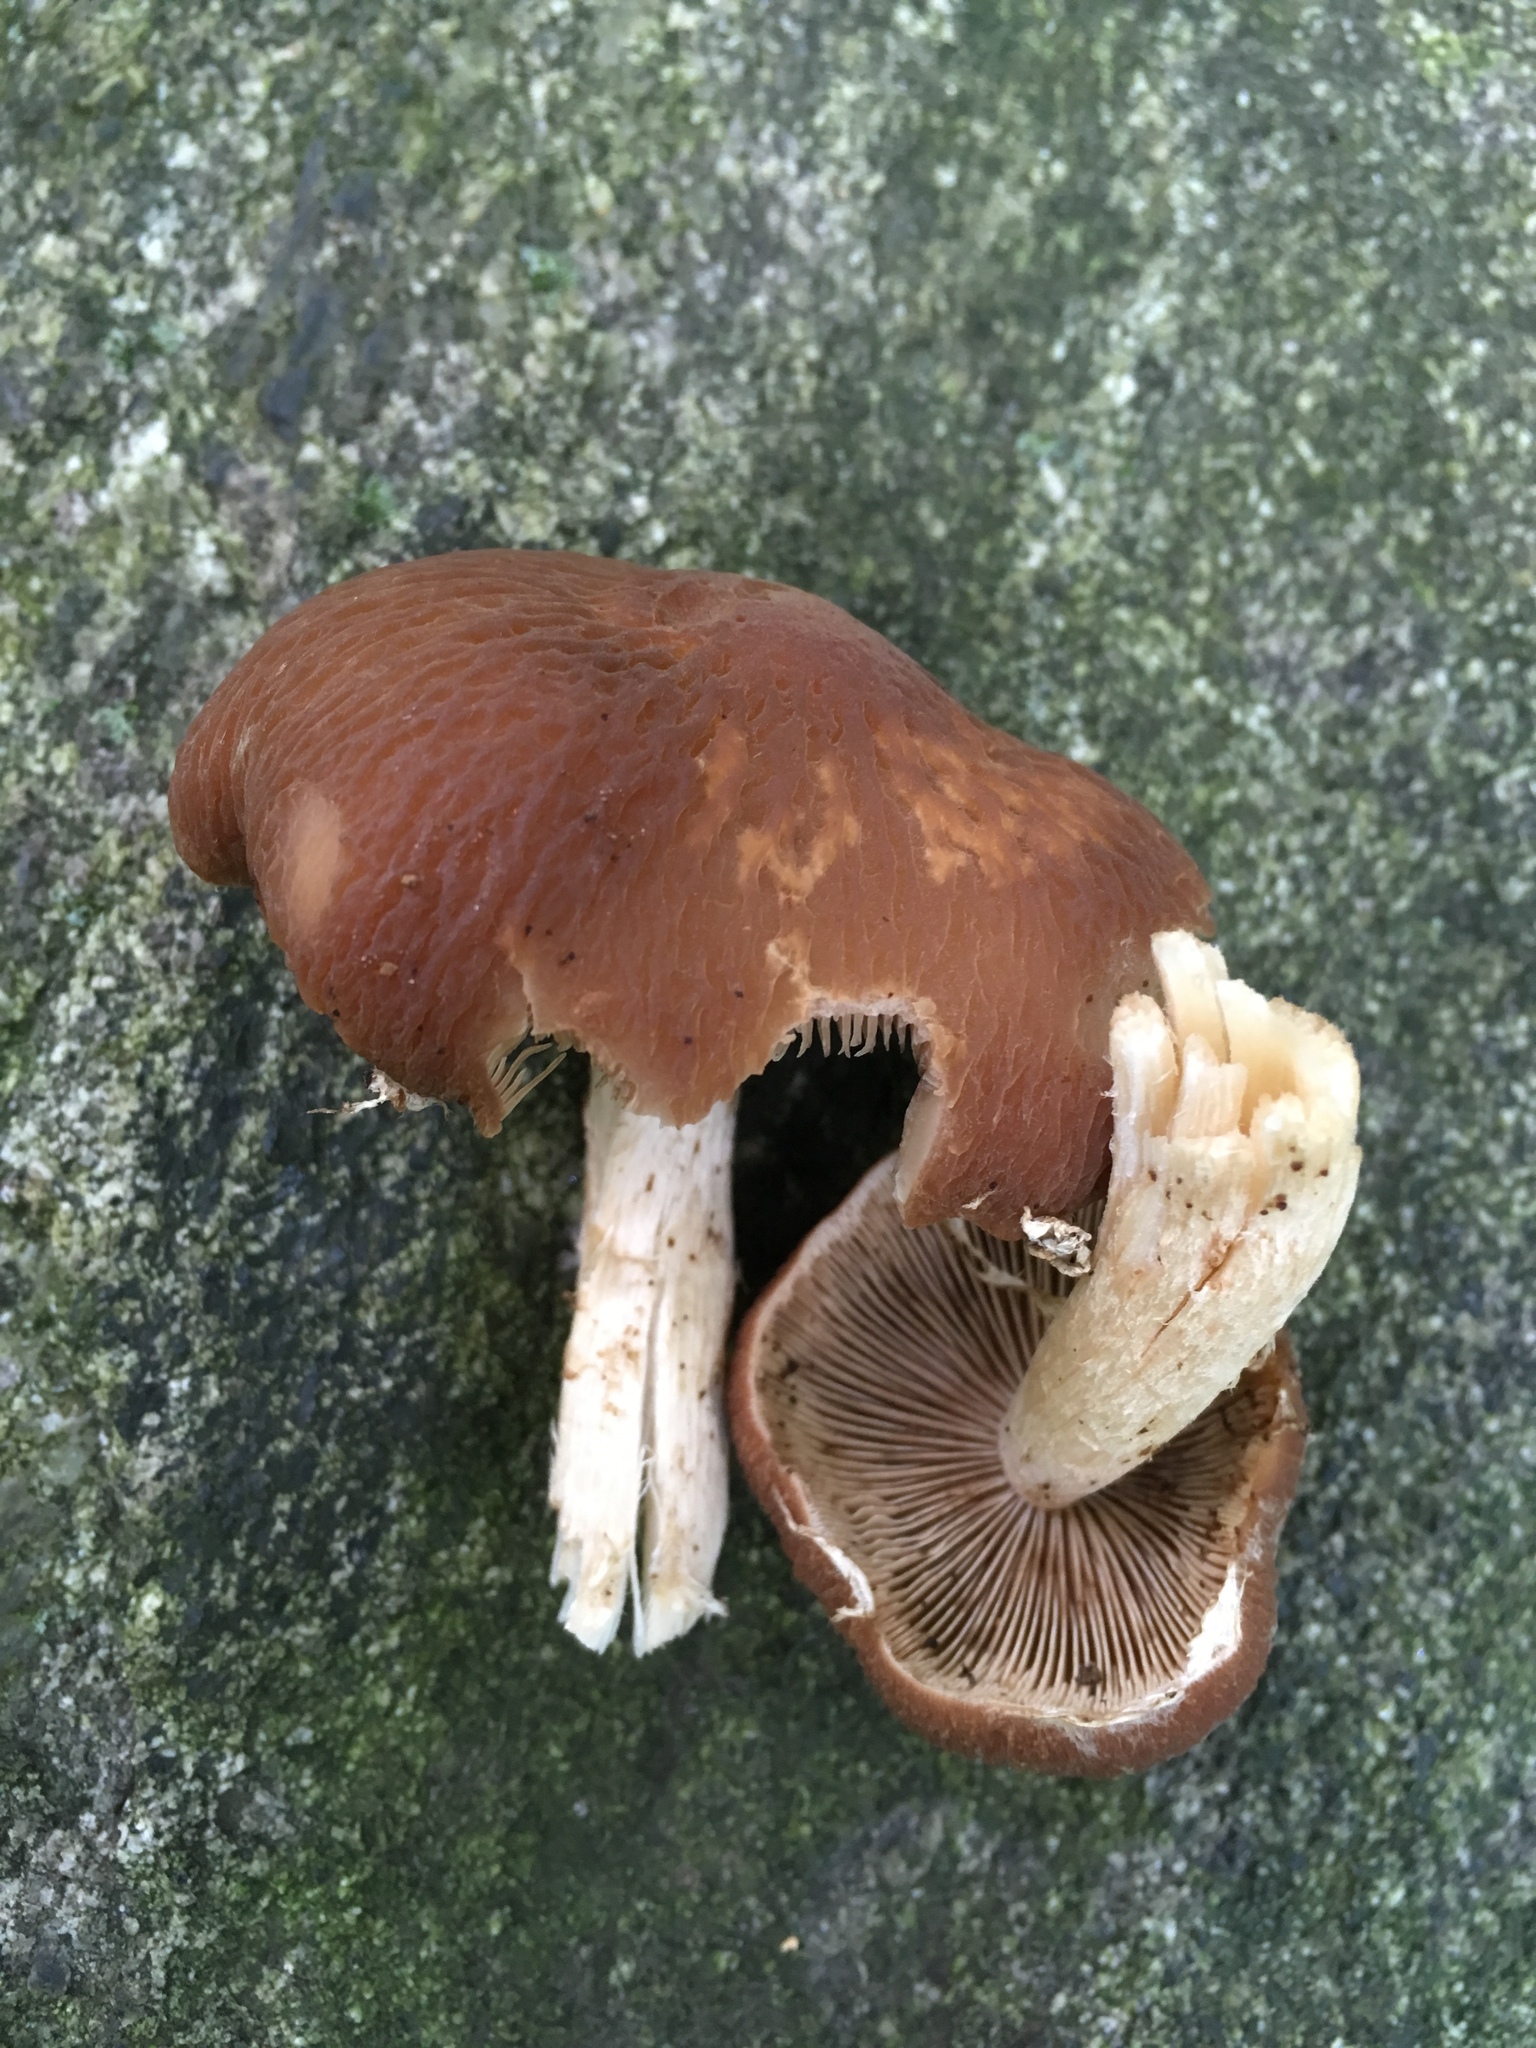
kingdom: Fungi
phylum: Basidiomycota
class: Agaricomycetes
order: Agaricales
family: Psathyrellaceae
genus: Typhrasa
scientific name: Typhrasa gossypina
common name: Wrinkled psathyrella
